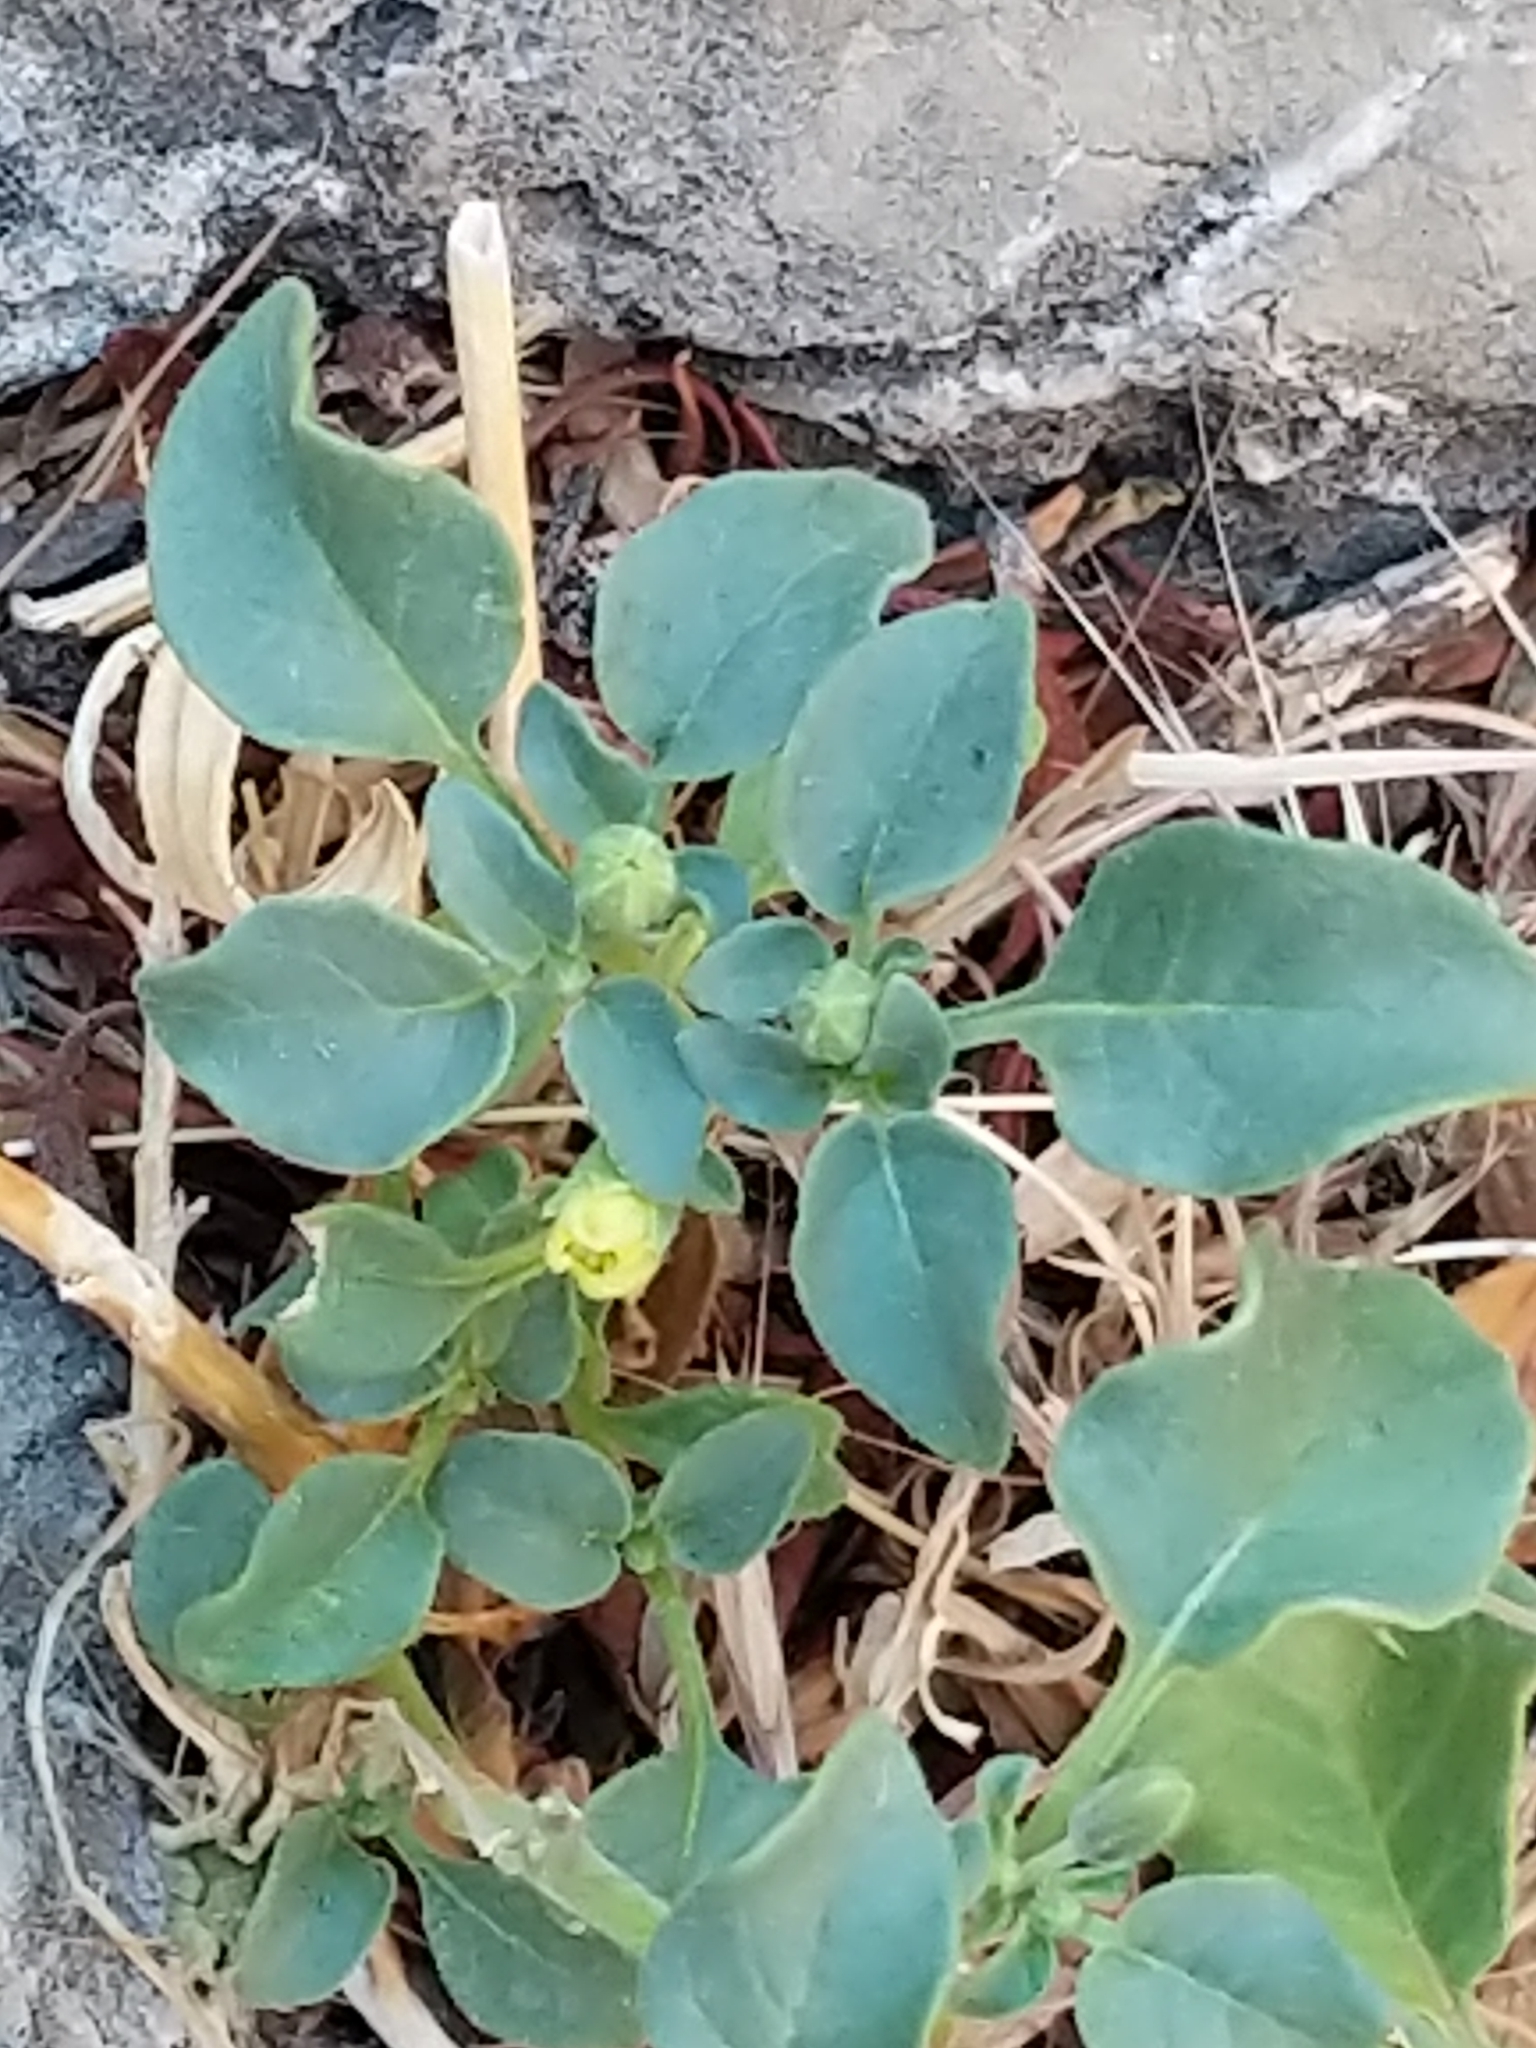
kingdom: Plantae
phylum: Tracheophyta
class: Magnoliopsida
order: Solanales
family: Solanaceae
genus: Physalis
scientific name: Physalis crassifolia
